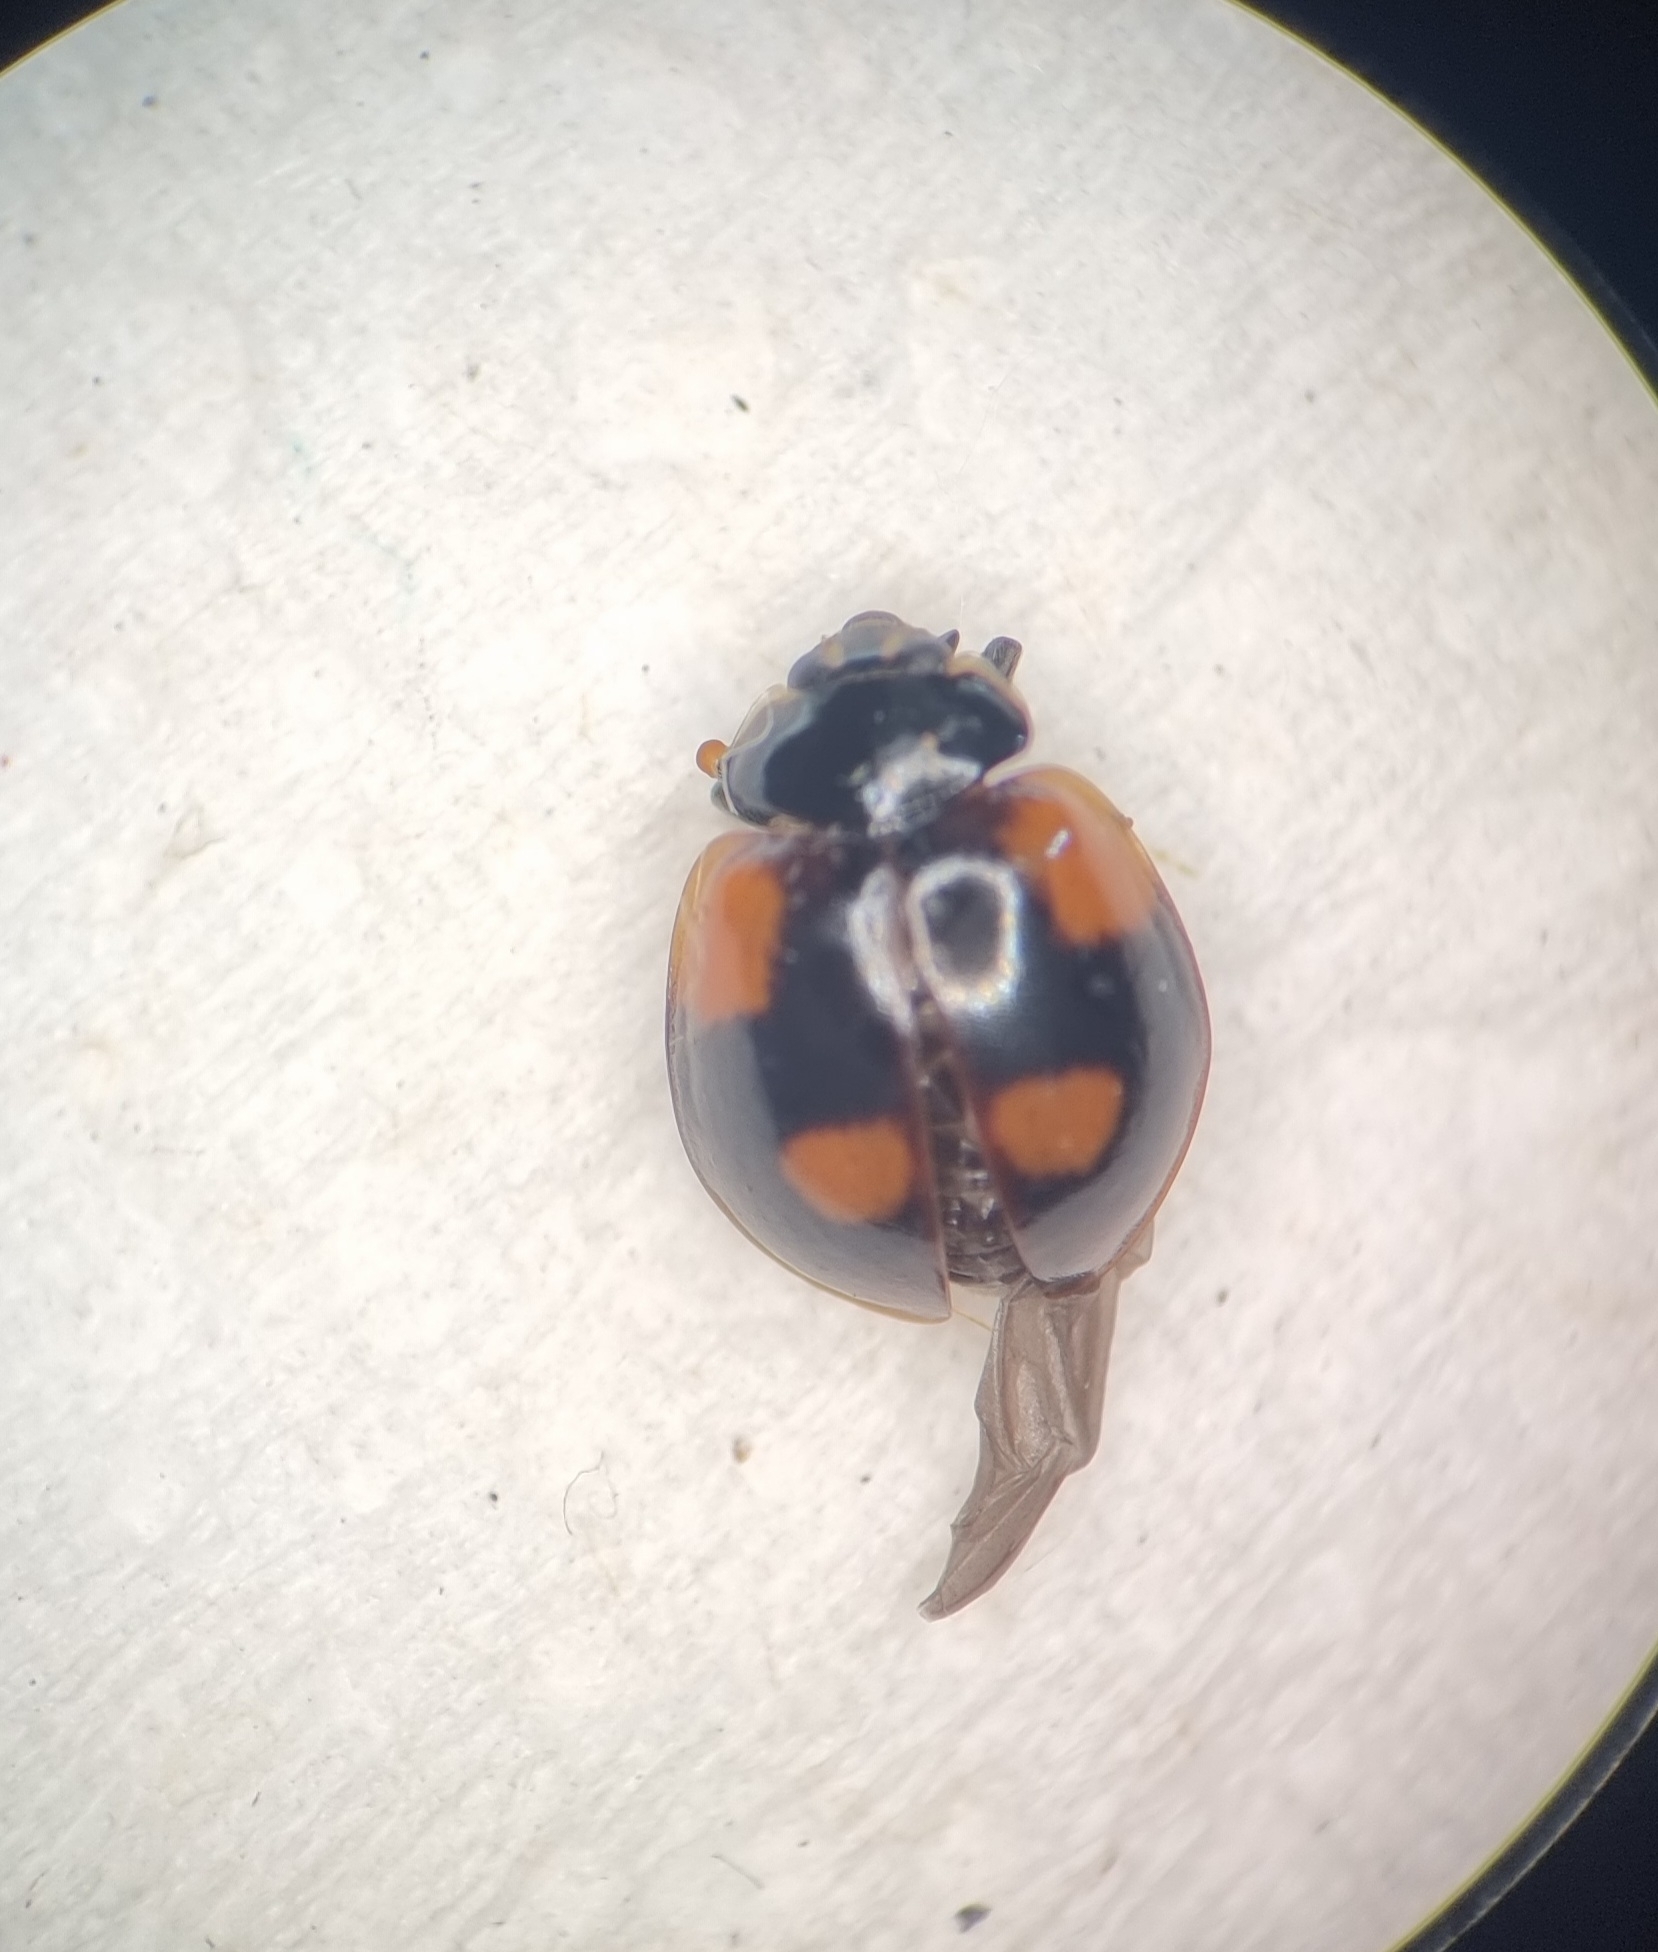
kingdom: Animalia
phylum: Arthropoda
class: Insecta
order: Coleoptera
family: Coccinellidae
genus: Adalia
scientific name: Adalia bipunctata
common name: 2-spot ladybird
